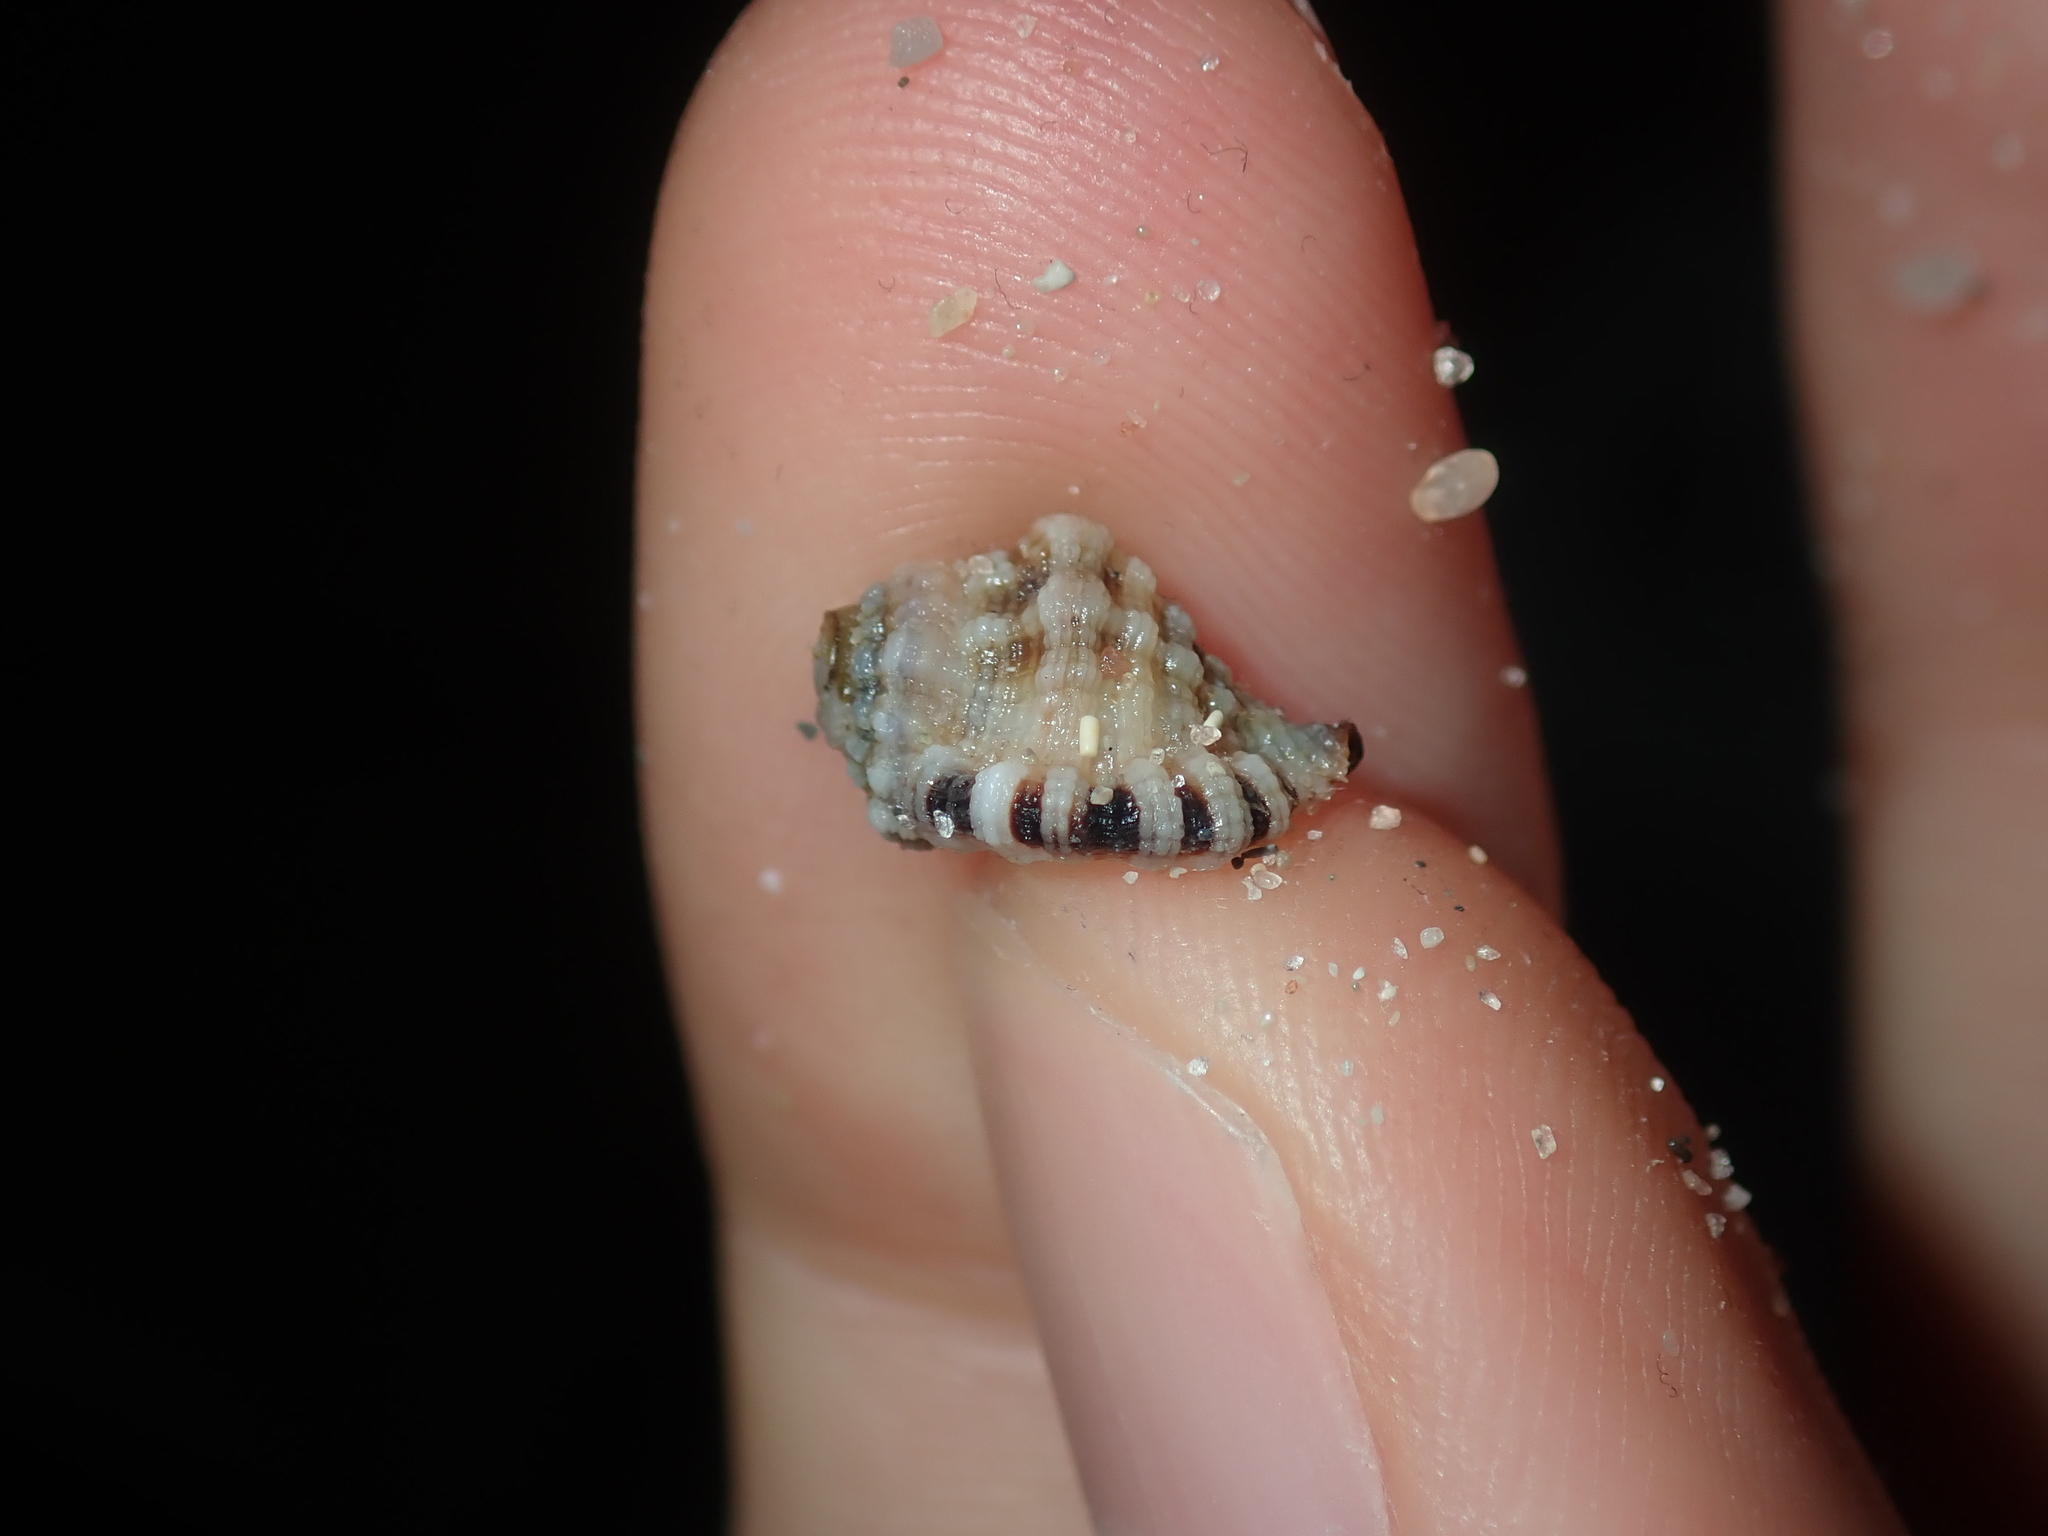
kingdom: Animalia
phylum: Mollusca
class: Gastropoda
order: Littorinimorpha
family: Cymatiidae
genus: Turritriton
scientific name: Turritriton labiosus
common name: Lip triton
